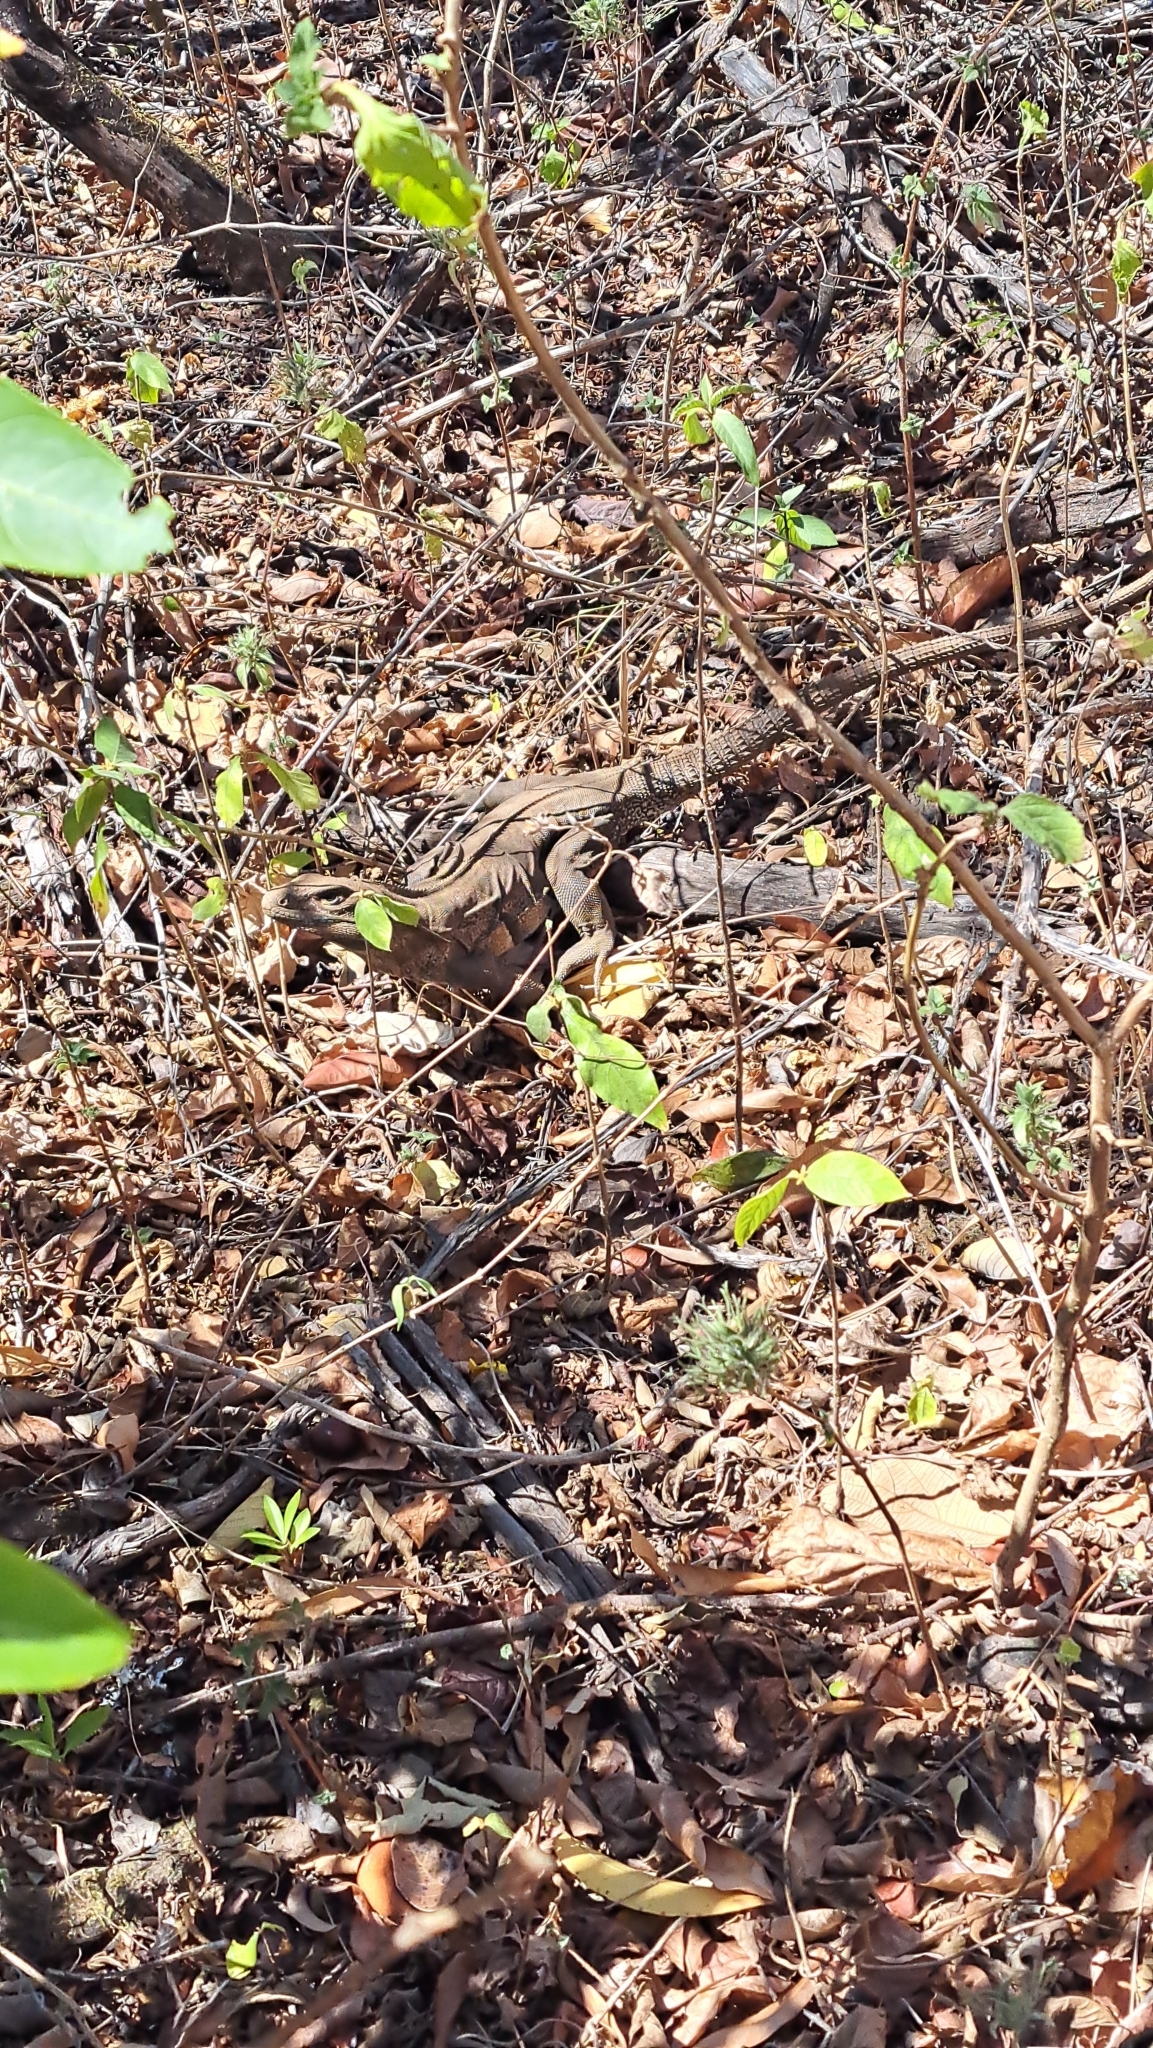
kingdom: Animalia
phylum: Chordata
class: Squamata
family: Iguanidae
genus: Ctenosaura
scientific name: Ctenosaura similis
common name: Black spiny-tailed iguana
